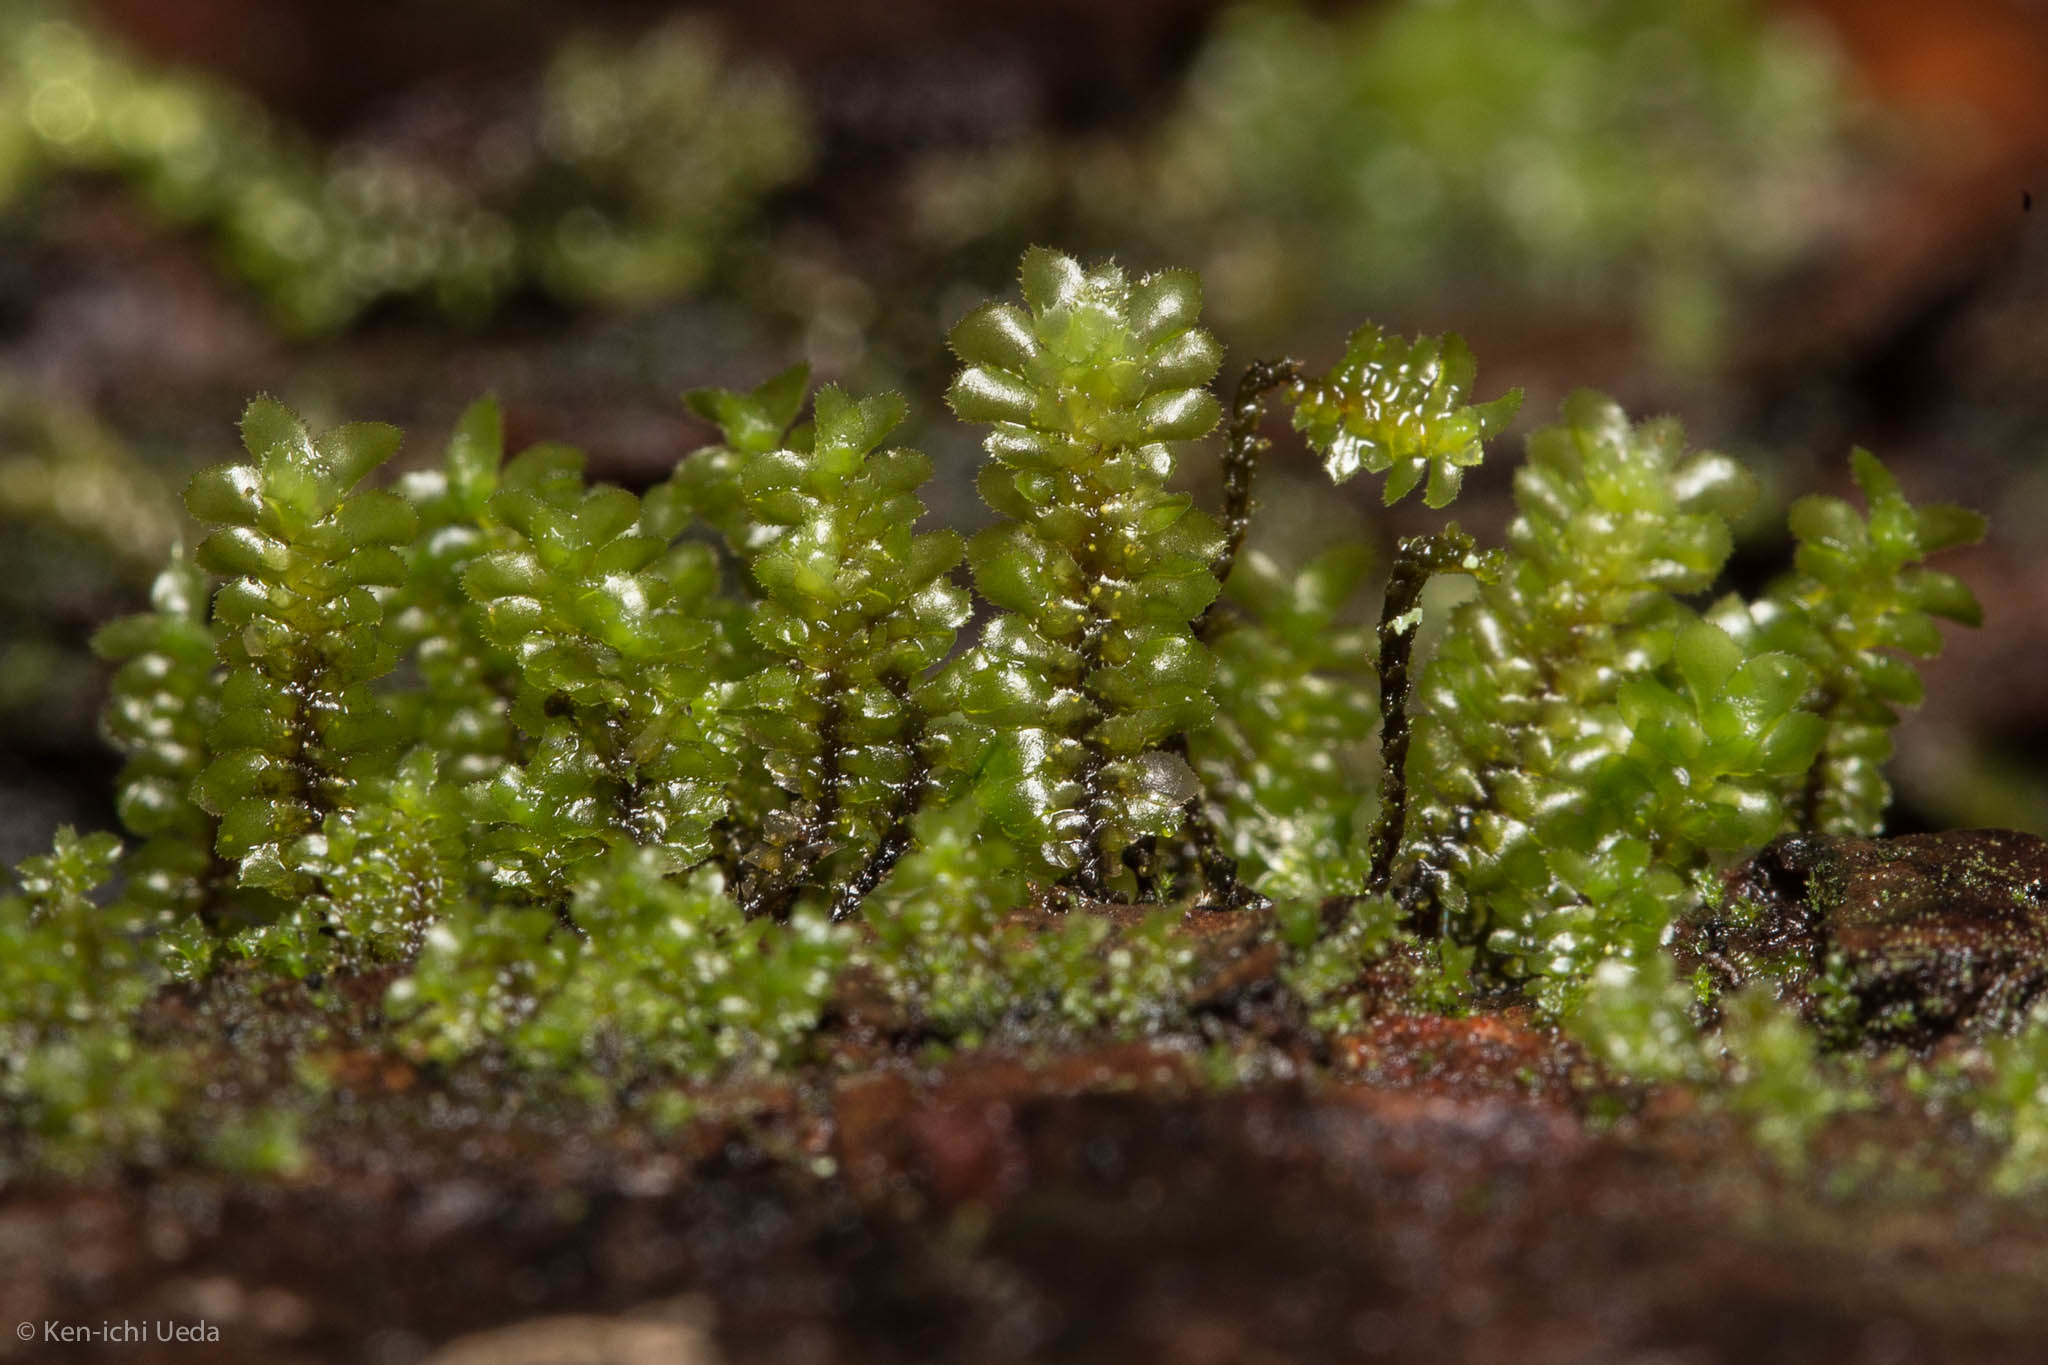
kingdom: Plantae
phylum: Marchantiophyta
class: Jungermanniopsida
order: Jungermanniales
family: Scapaniaceae
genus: Scapania
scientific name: Scapania bolanderi
